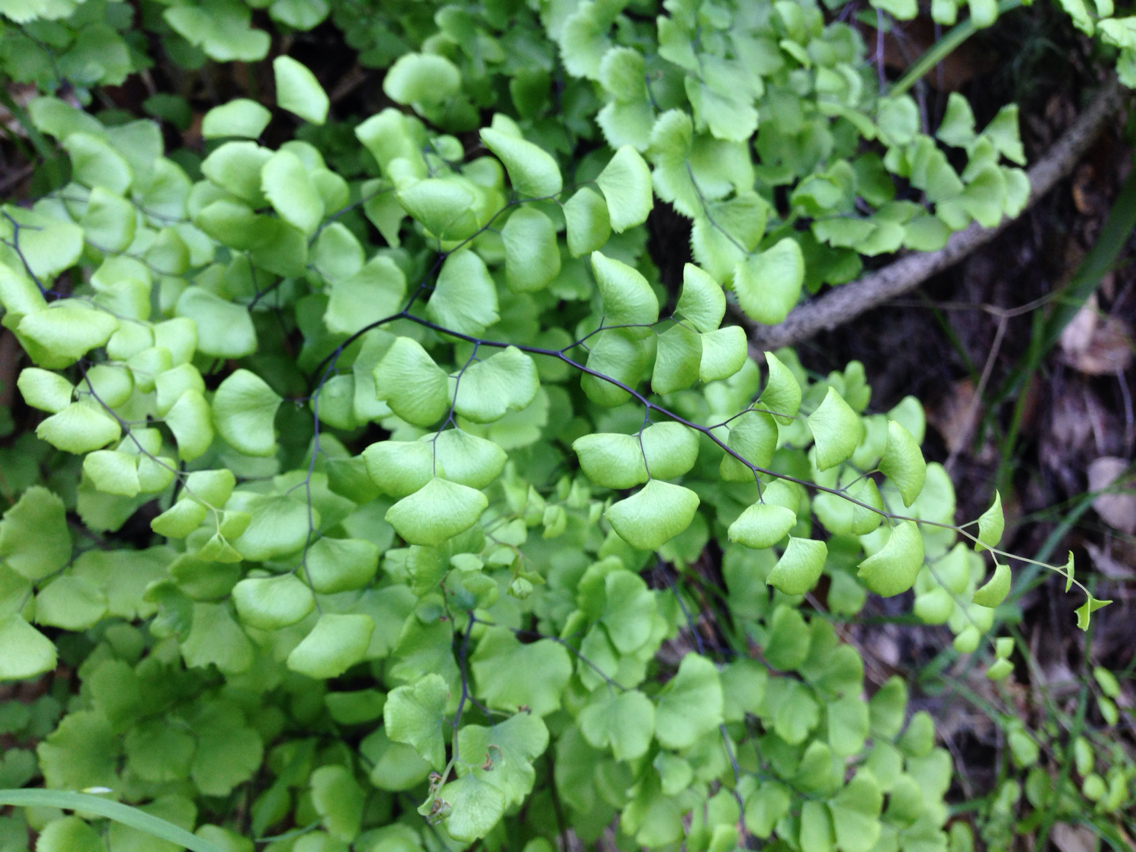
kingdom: Plantae
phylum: Tracheophyta
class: Polypodiopsida
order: Polypodiales
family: Pteridaceae
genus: Adiantum
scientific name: Adiantum jordanii
